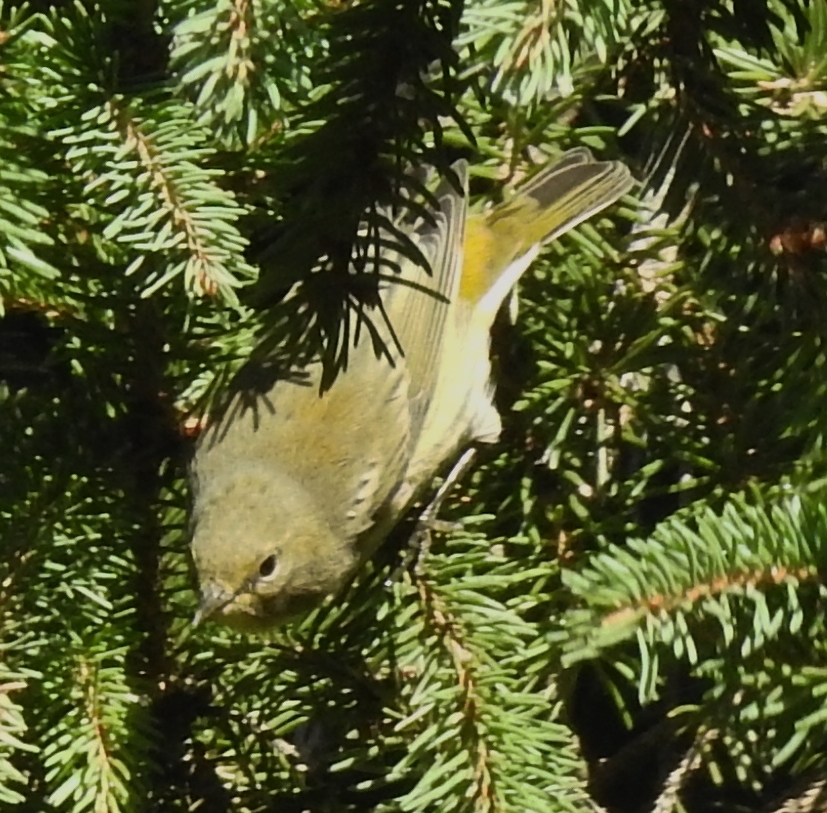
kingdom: Animalia
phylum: Chordata
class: Aves
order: Passeriformes
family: Parulidae
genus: Setophaga
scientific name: Setophaga tigrina
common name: Cape may warbler
